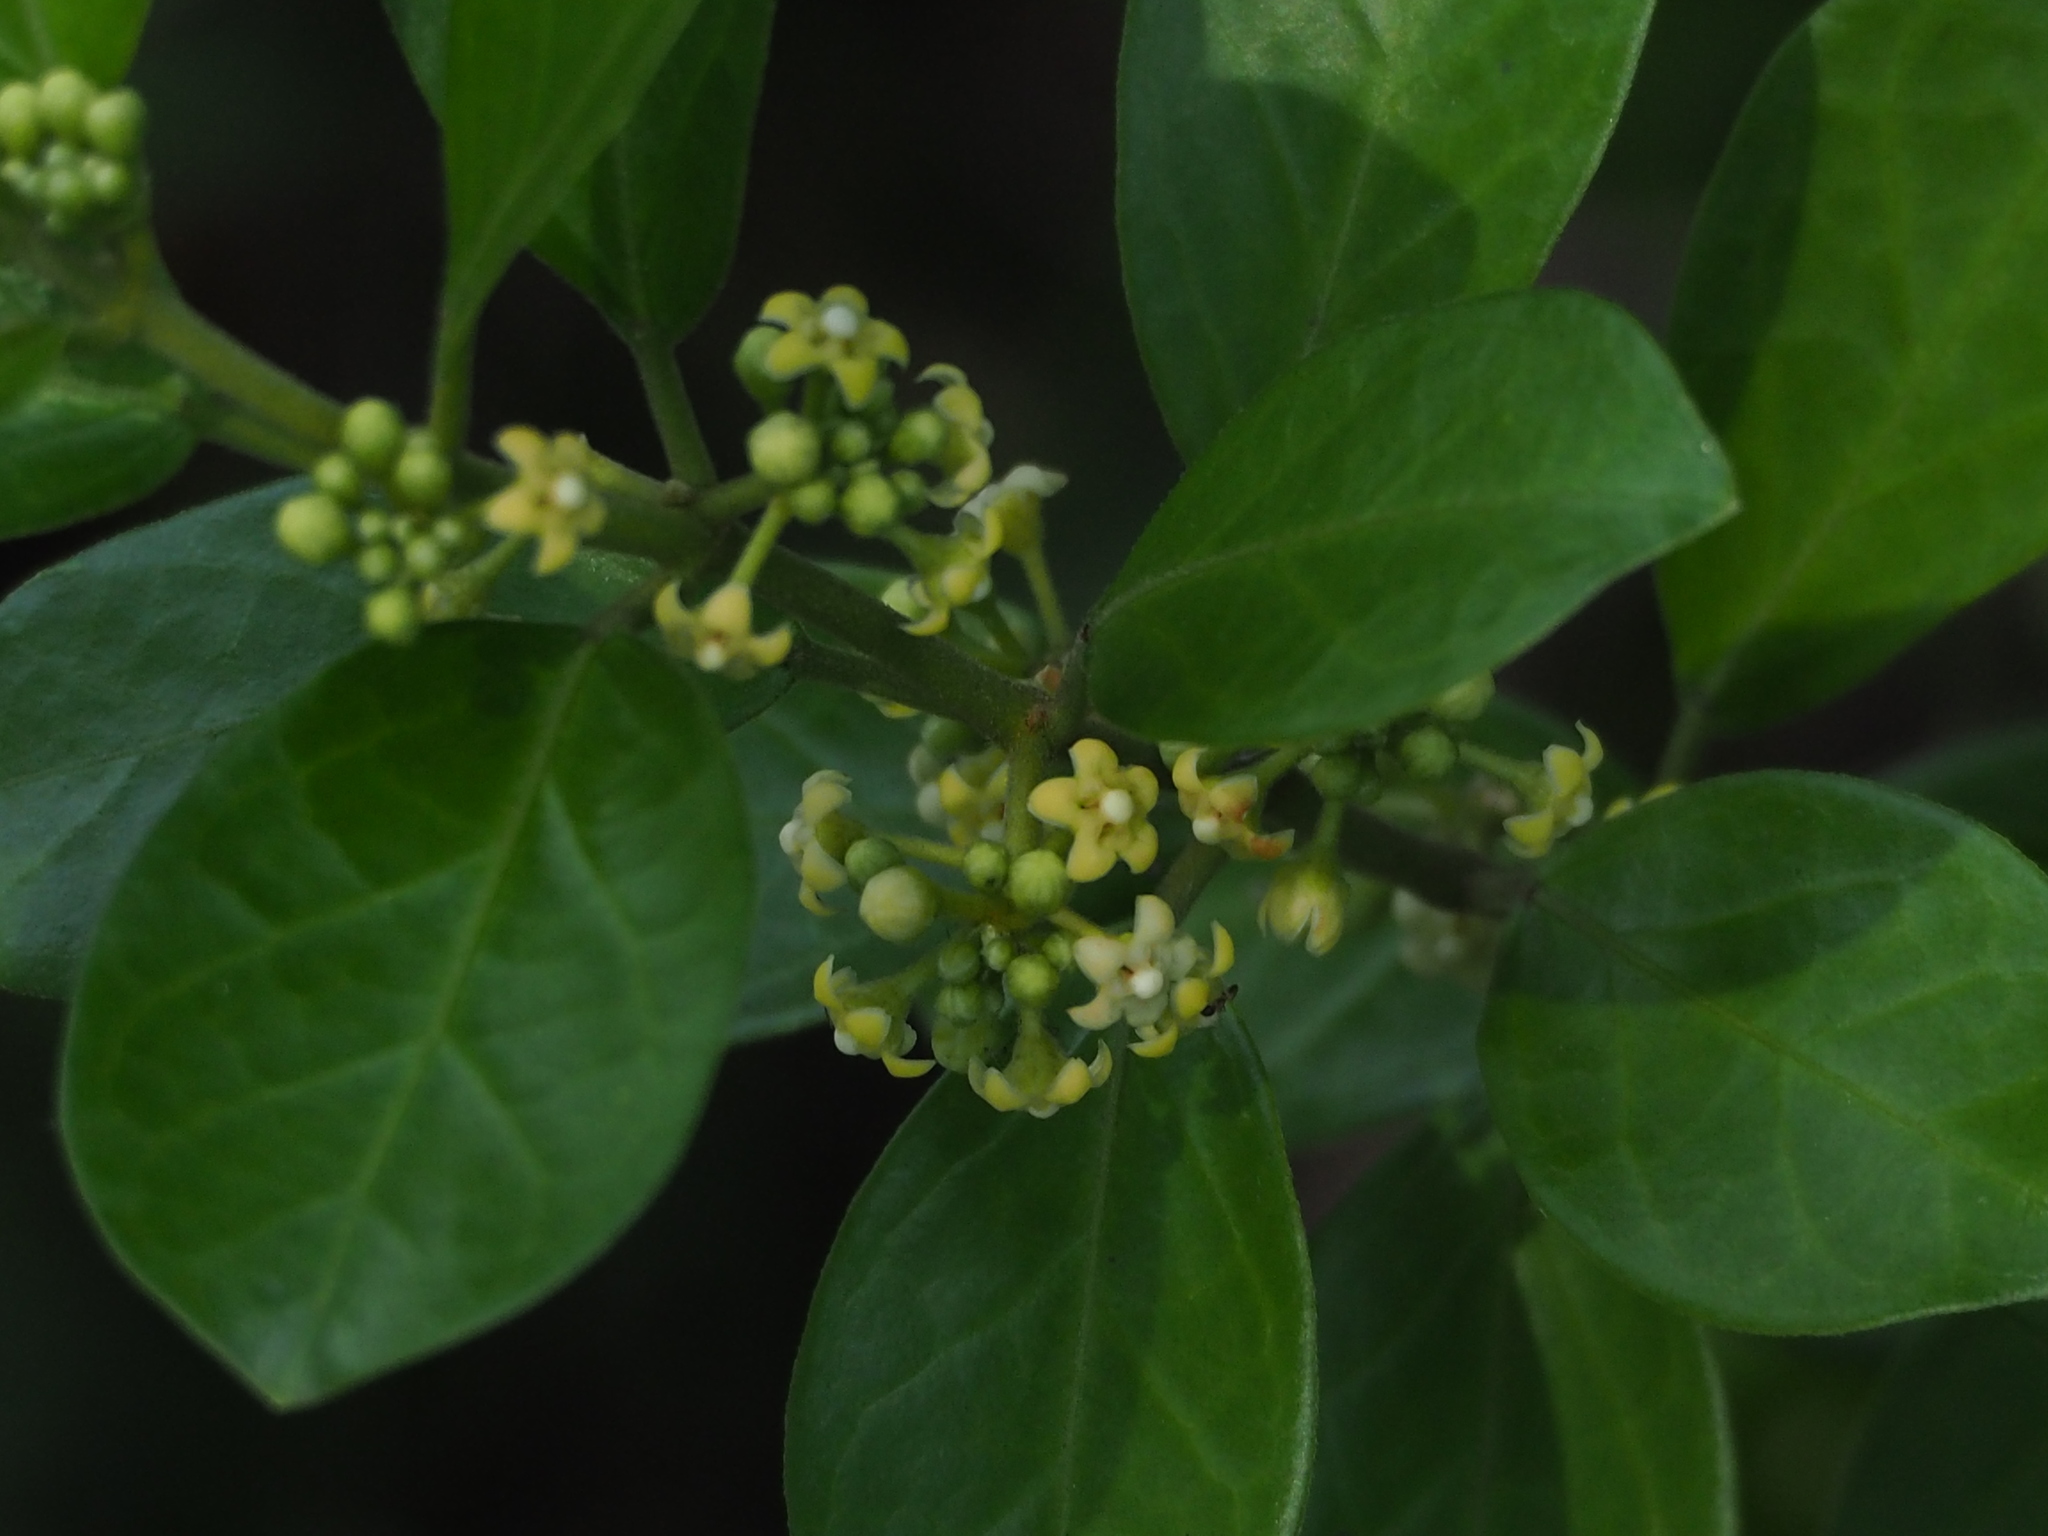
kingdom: Plantae
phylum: Tracheophyta
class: Magnoliopsida
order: Gentianales
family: Apocynaceae
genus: Gymnema
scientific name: Gymnema sylvestre
